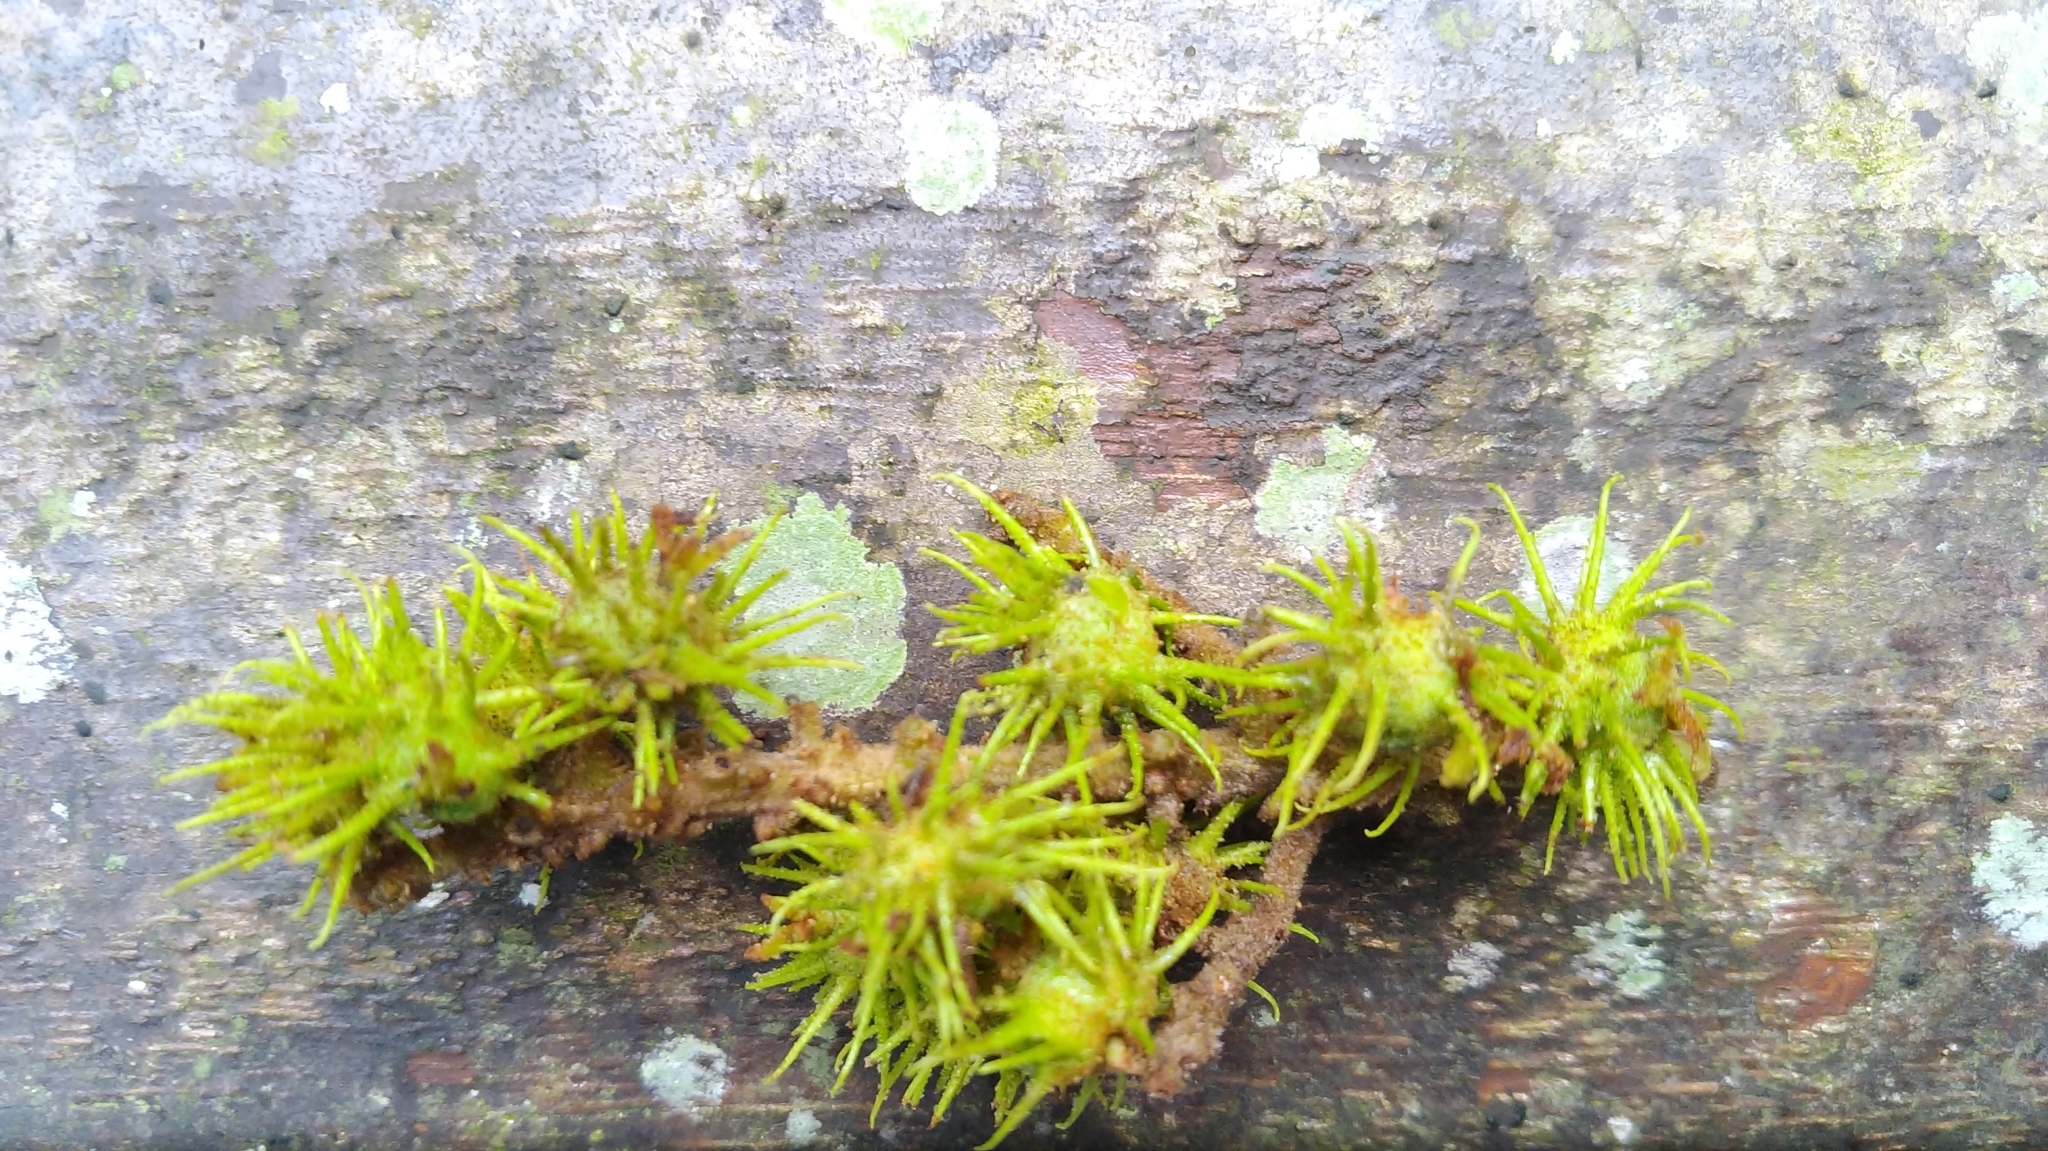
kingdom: Plantae
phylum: Tracheophyta
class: Magnoliopsida
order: Malpighiales
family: Euphorbiaceae
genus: Mallotus
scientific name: Mallotus japonicus
